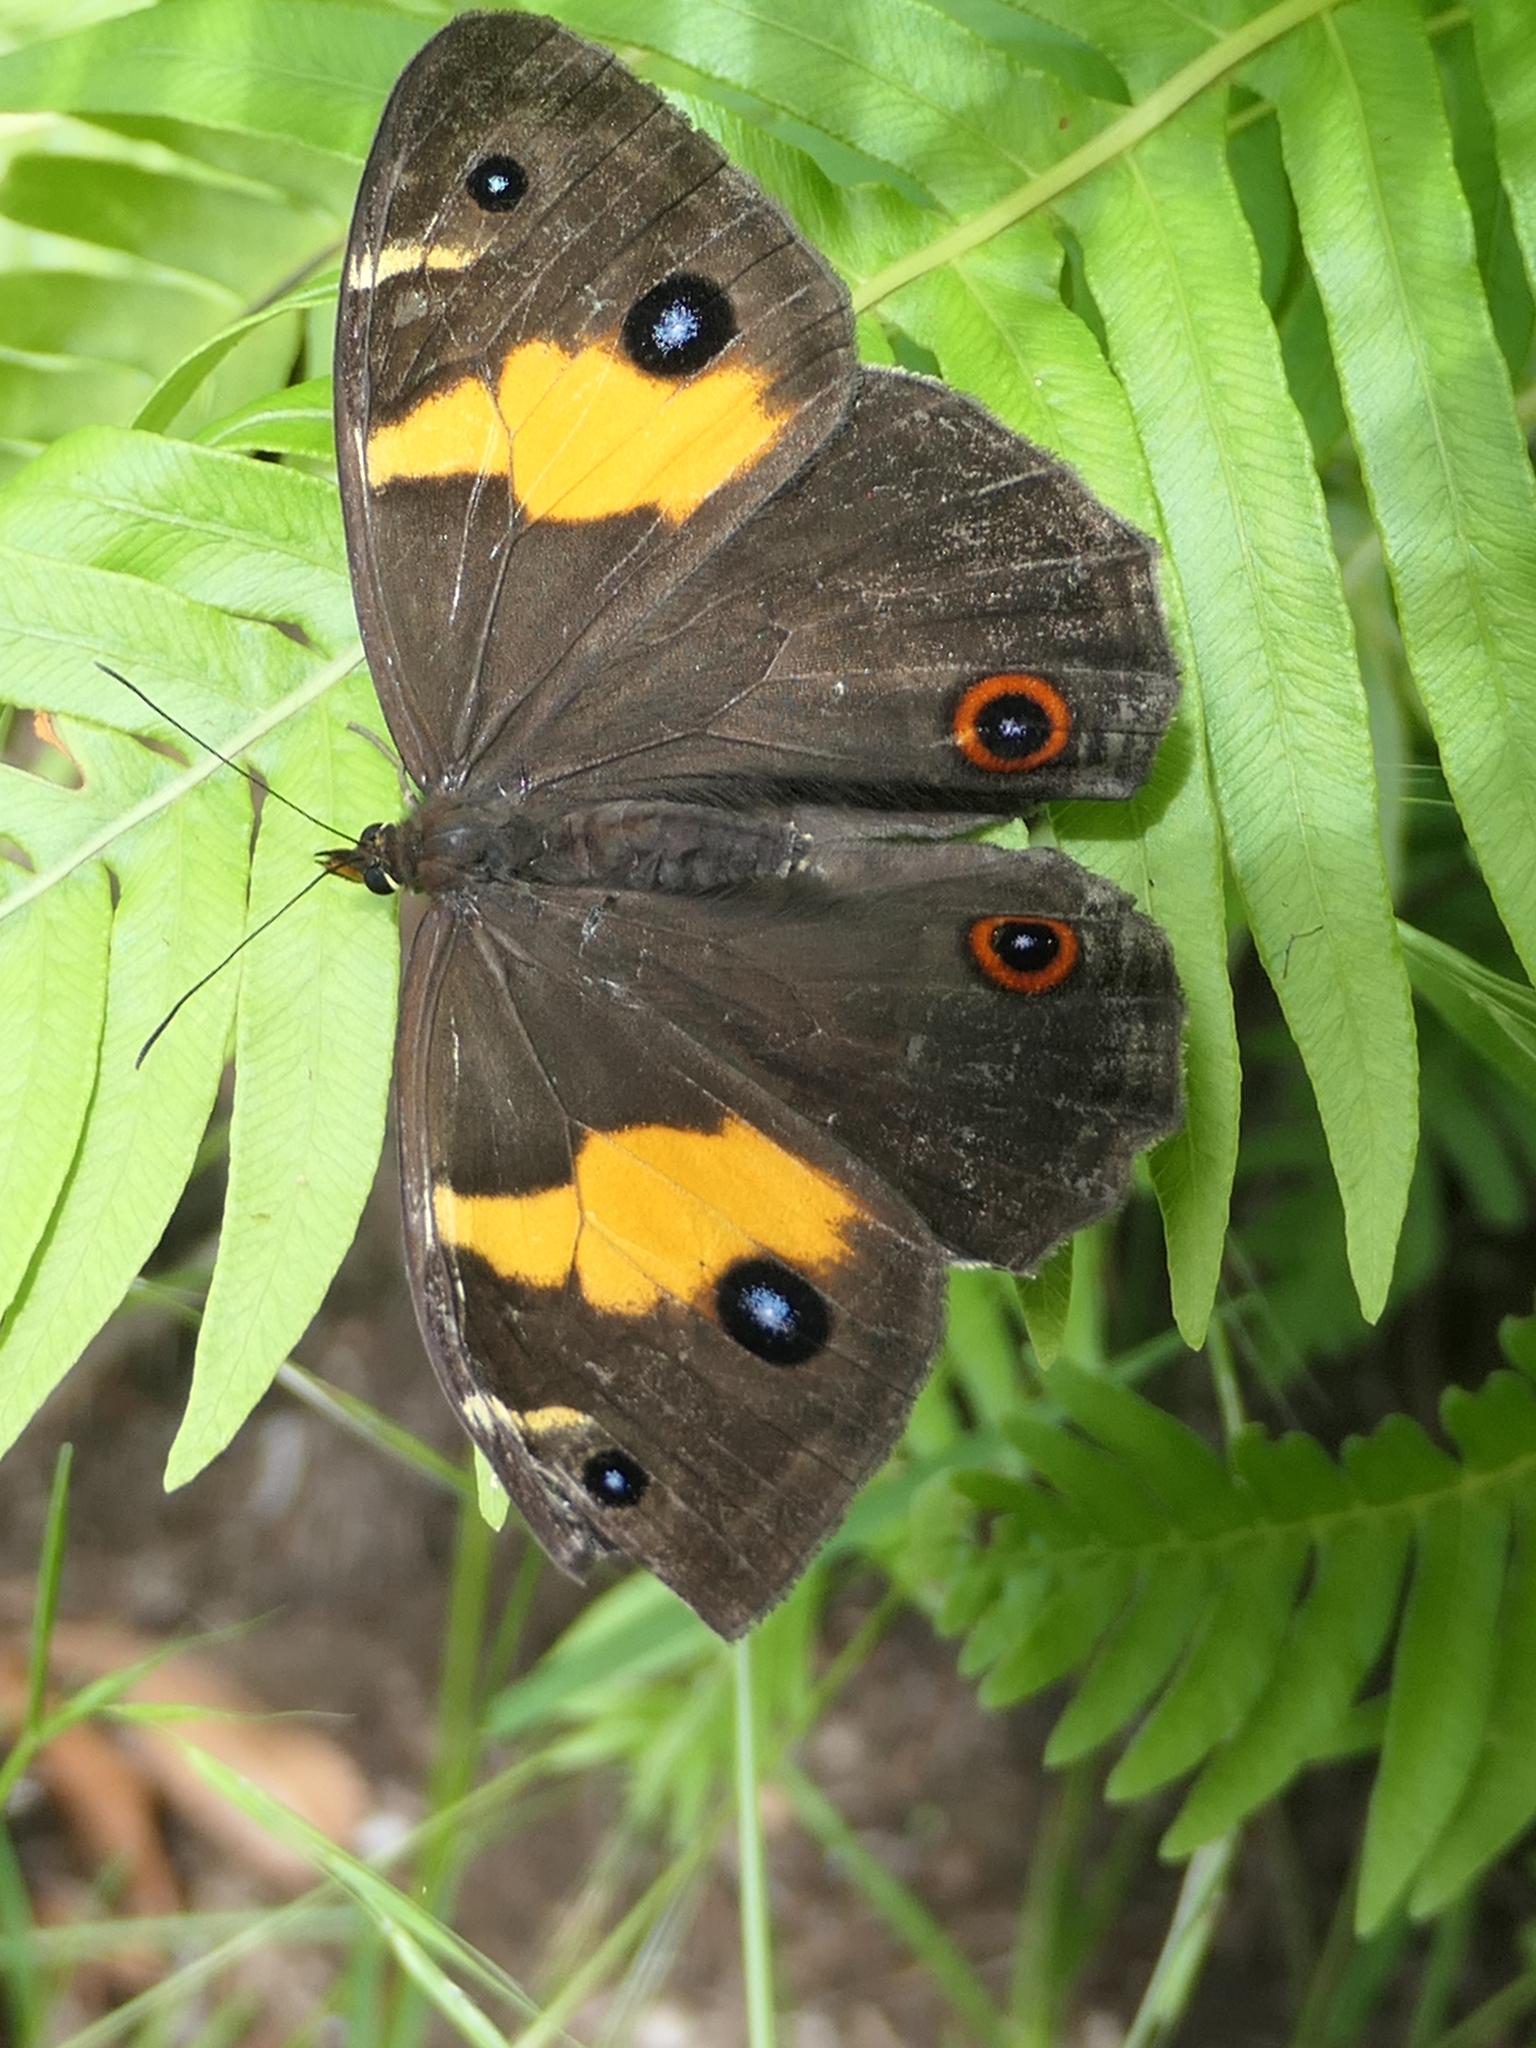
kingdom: Animalia
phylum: Arthropoda
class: Insecta
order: Lepidoptera
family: Nymphalidae
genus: Tisiphone
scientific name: Tisiphone abeona
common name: Swordgrass brown
